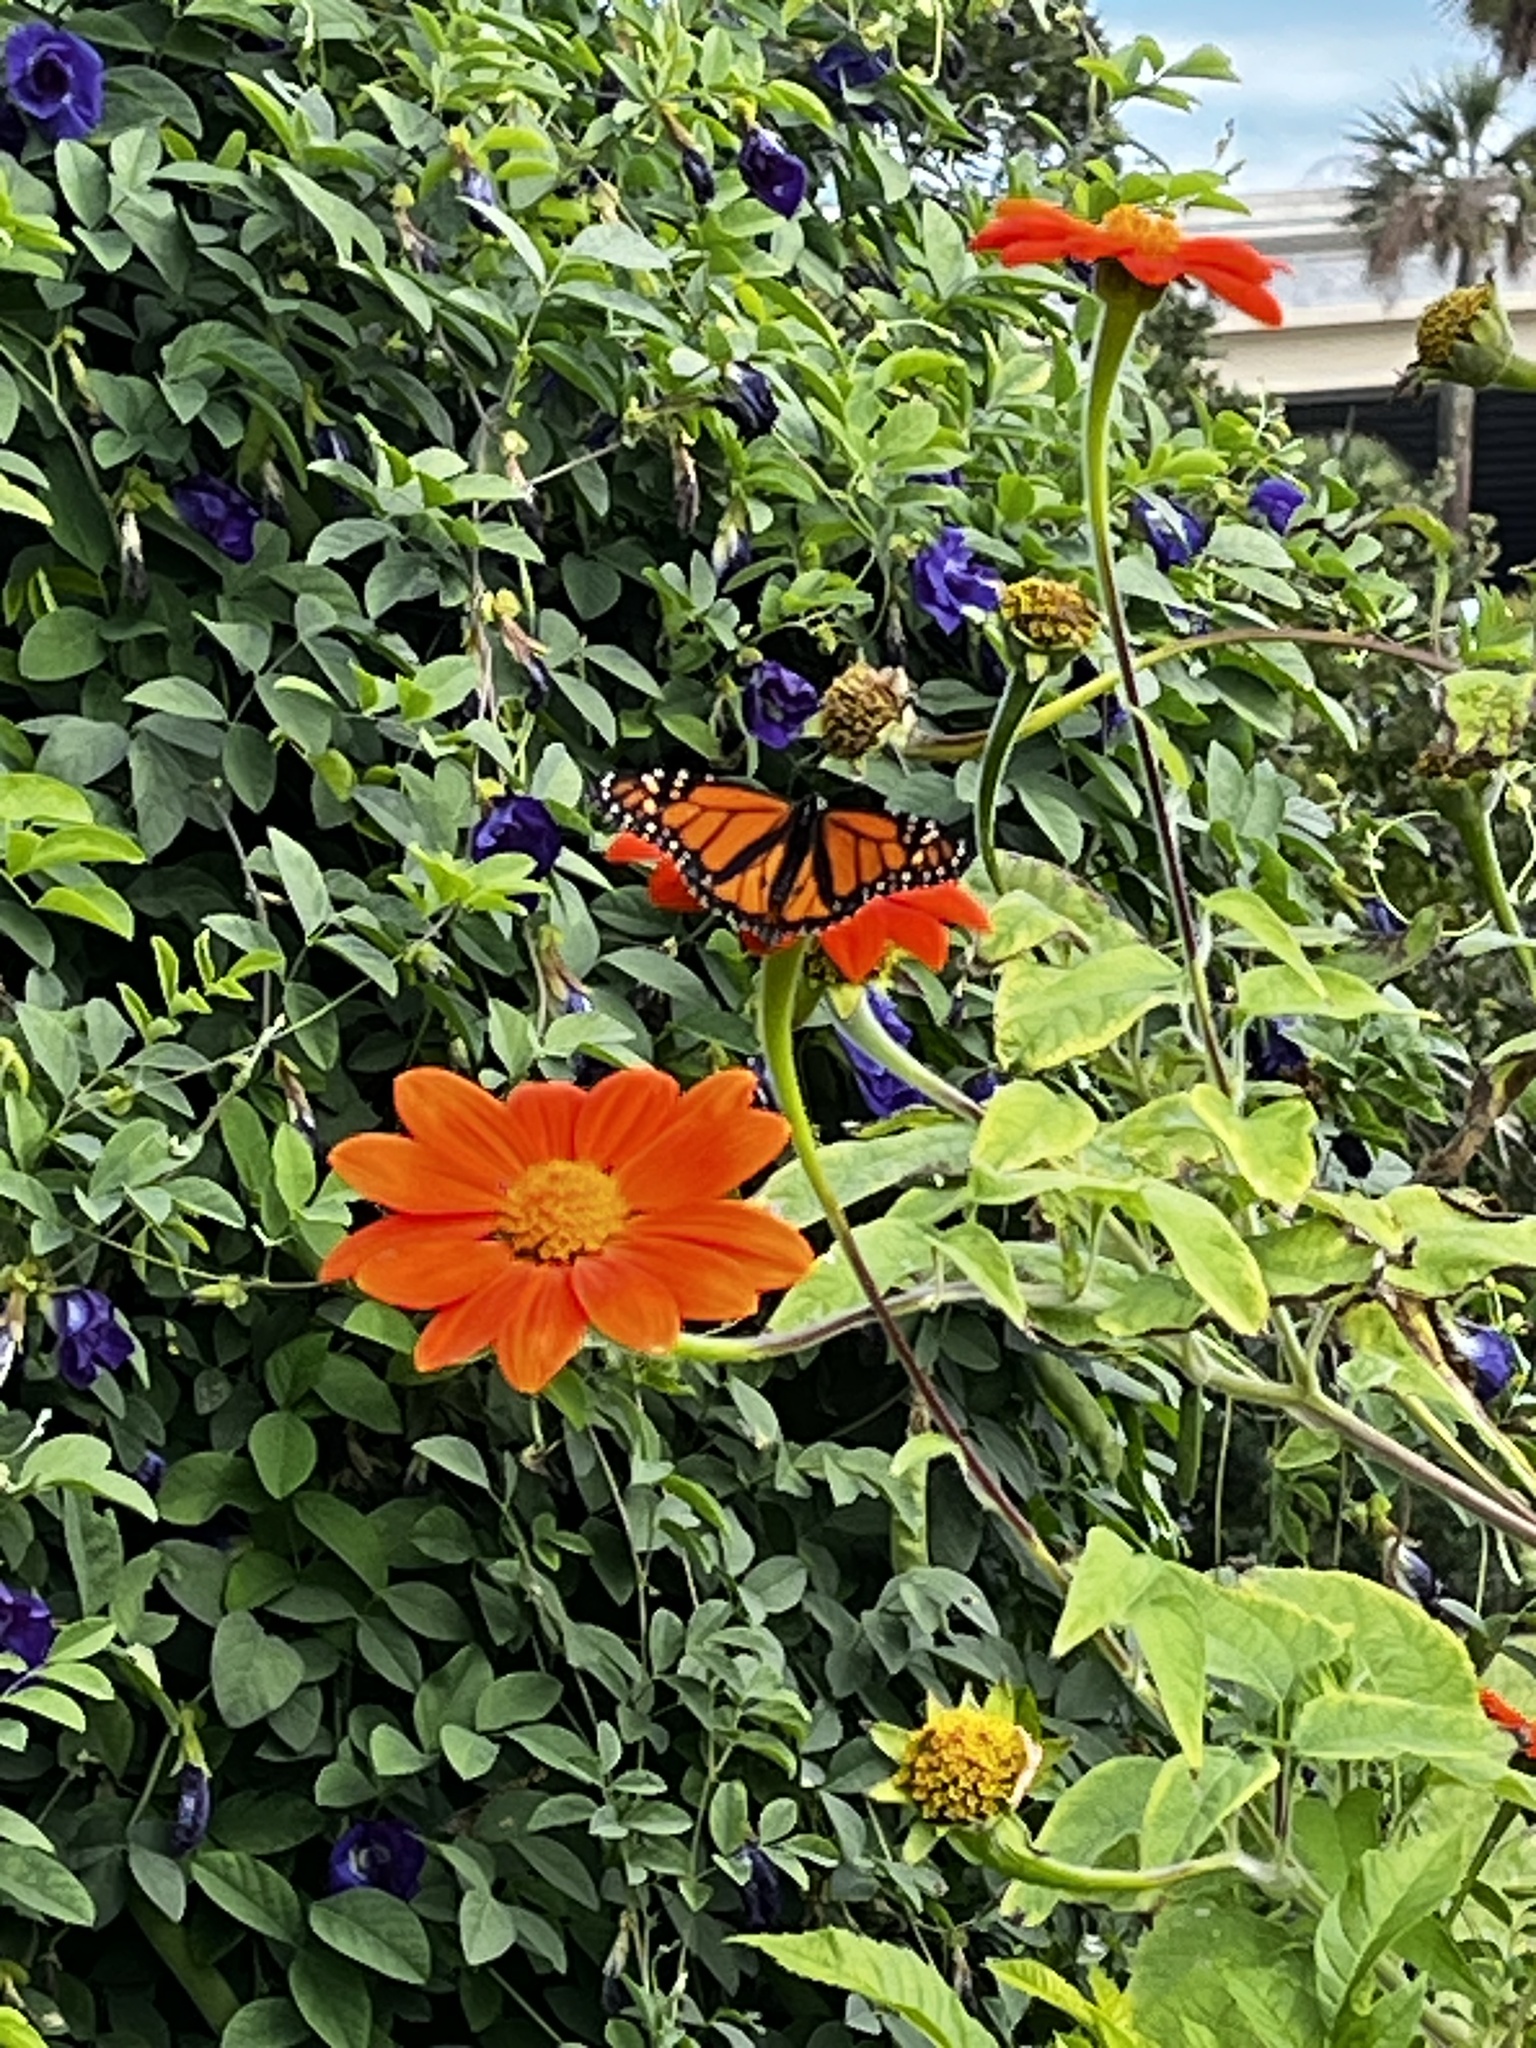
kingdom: Animalia
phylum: Arthropoda
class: Insecta
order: Lepidoptera
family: Nymphalidae
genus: Danaus
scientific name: Danaus plexippus
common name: Monarch
